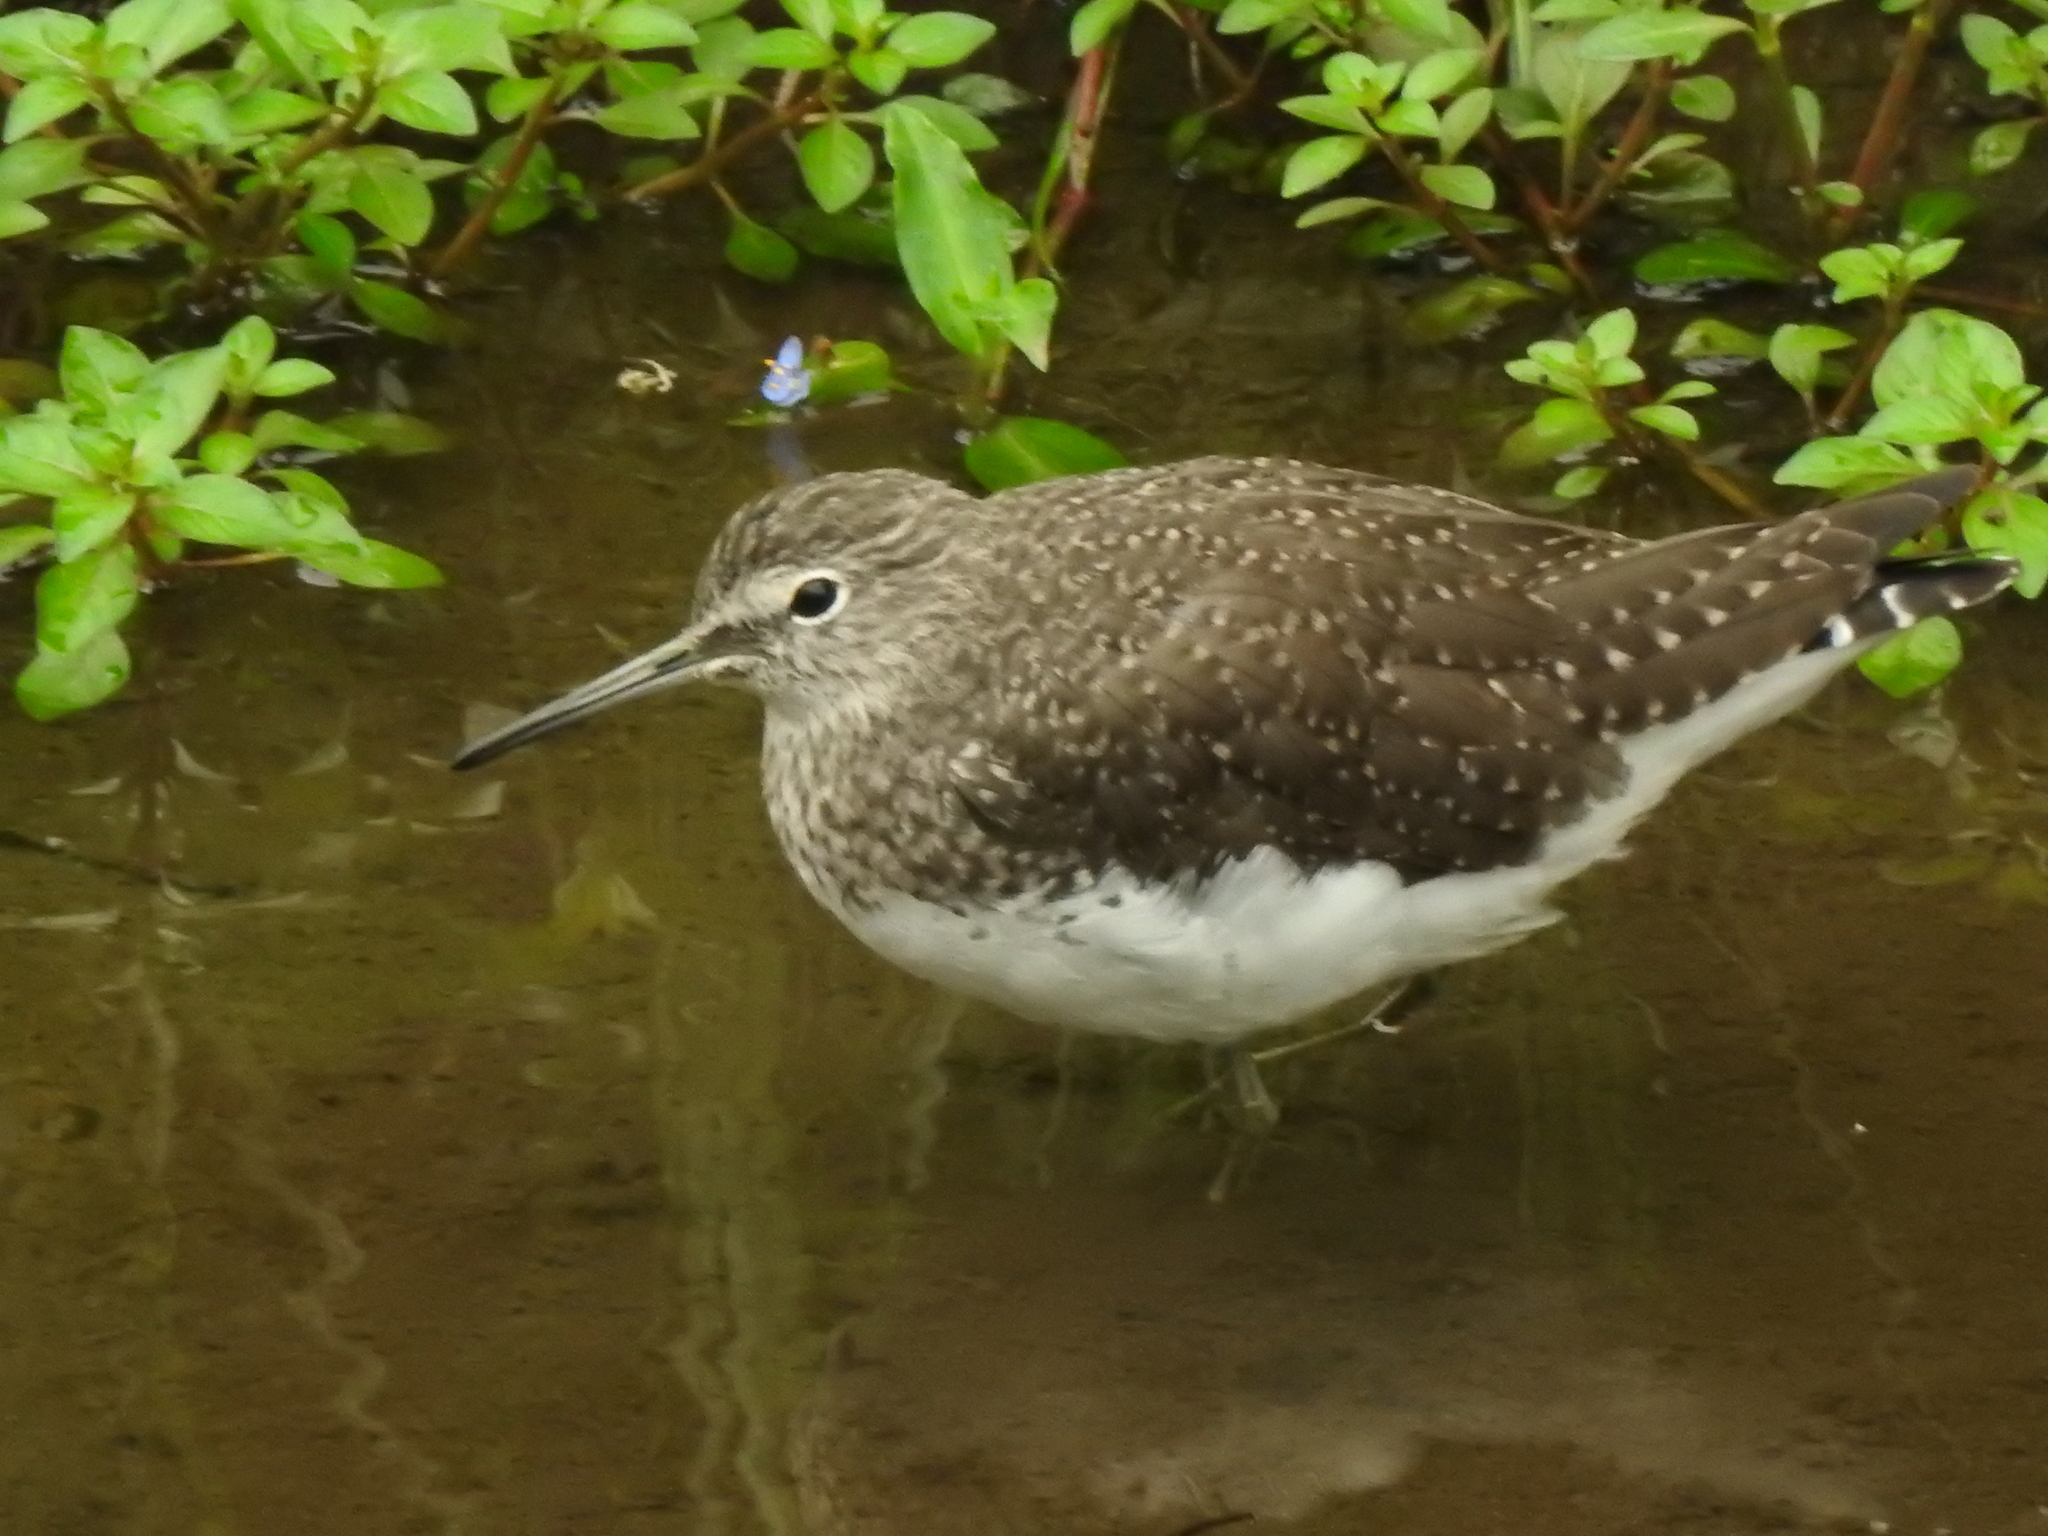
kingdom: Animalia
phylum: Chordata
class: Aves
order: Charadriiformes
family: Scolopacidae
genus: Tringa
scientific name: Tringa ochropus
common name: Green sandpiper
